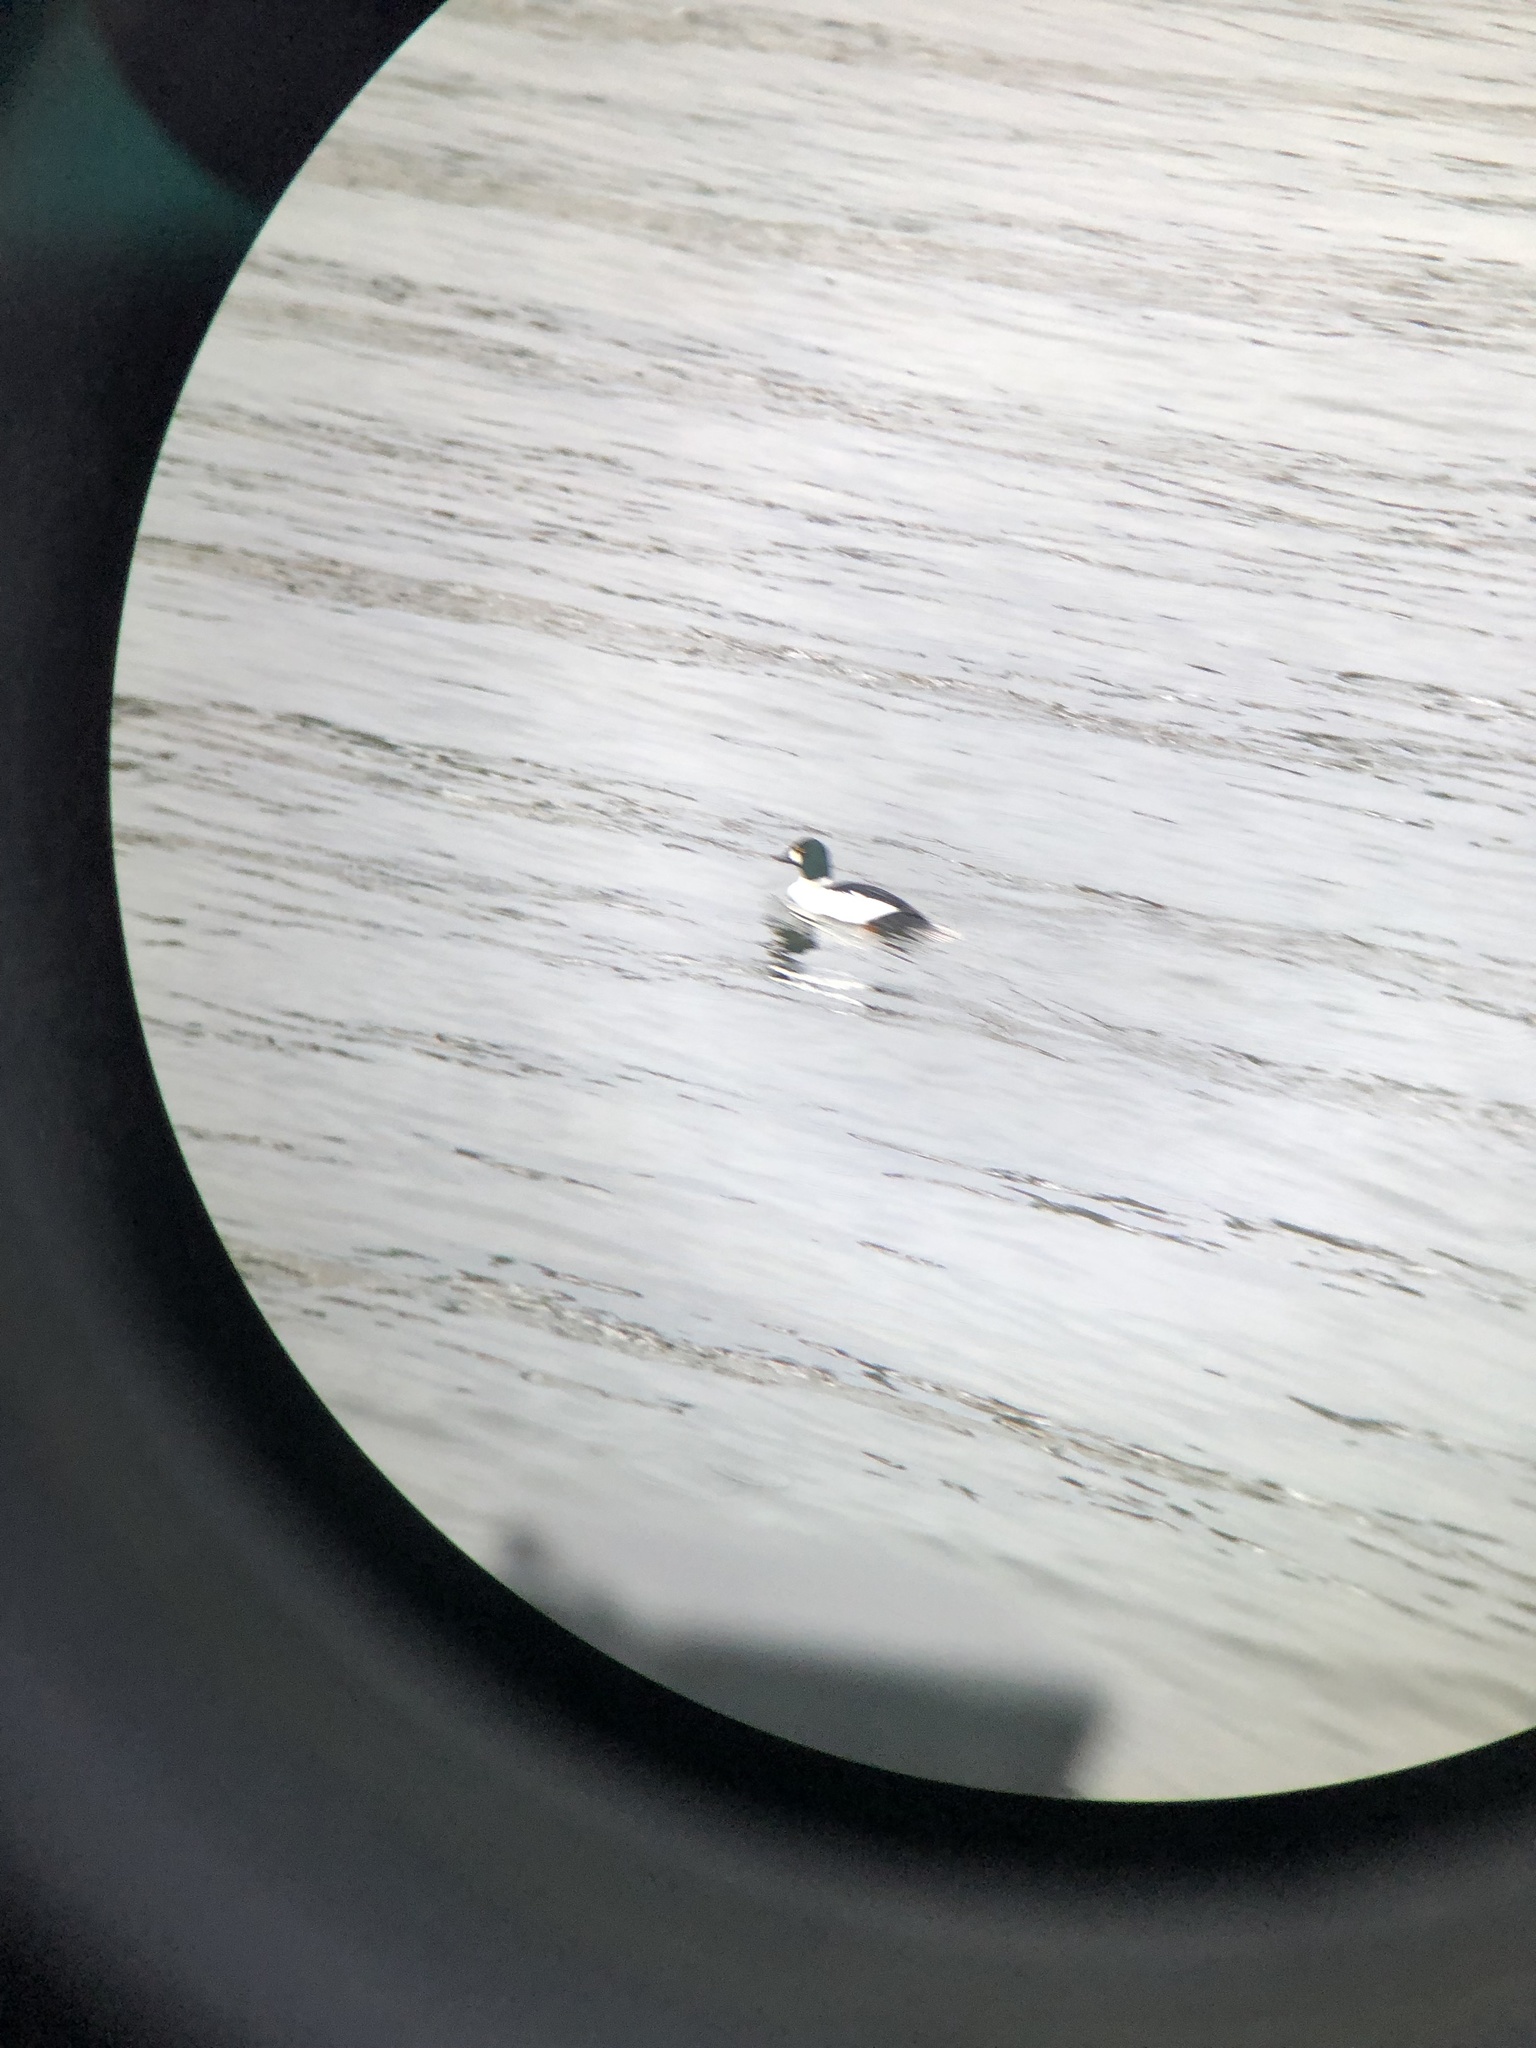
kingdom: Animalia
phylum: Chordata
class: Aves
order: Anseriformes
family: Anatidae
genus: Bucephala
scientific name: Bucephala clangula
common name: Common goldeneye
